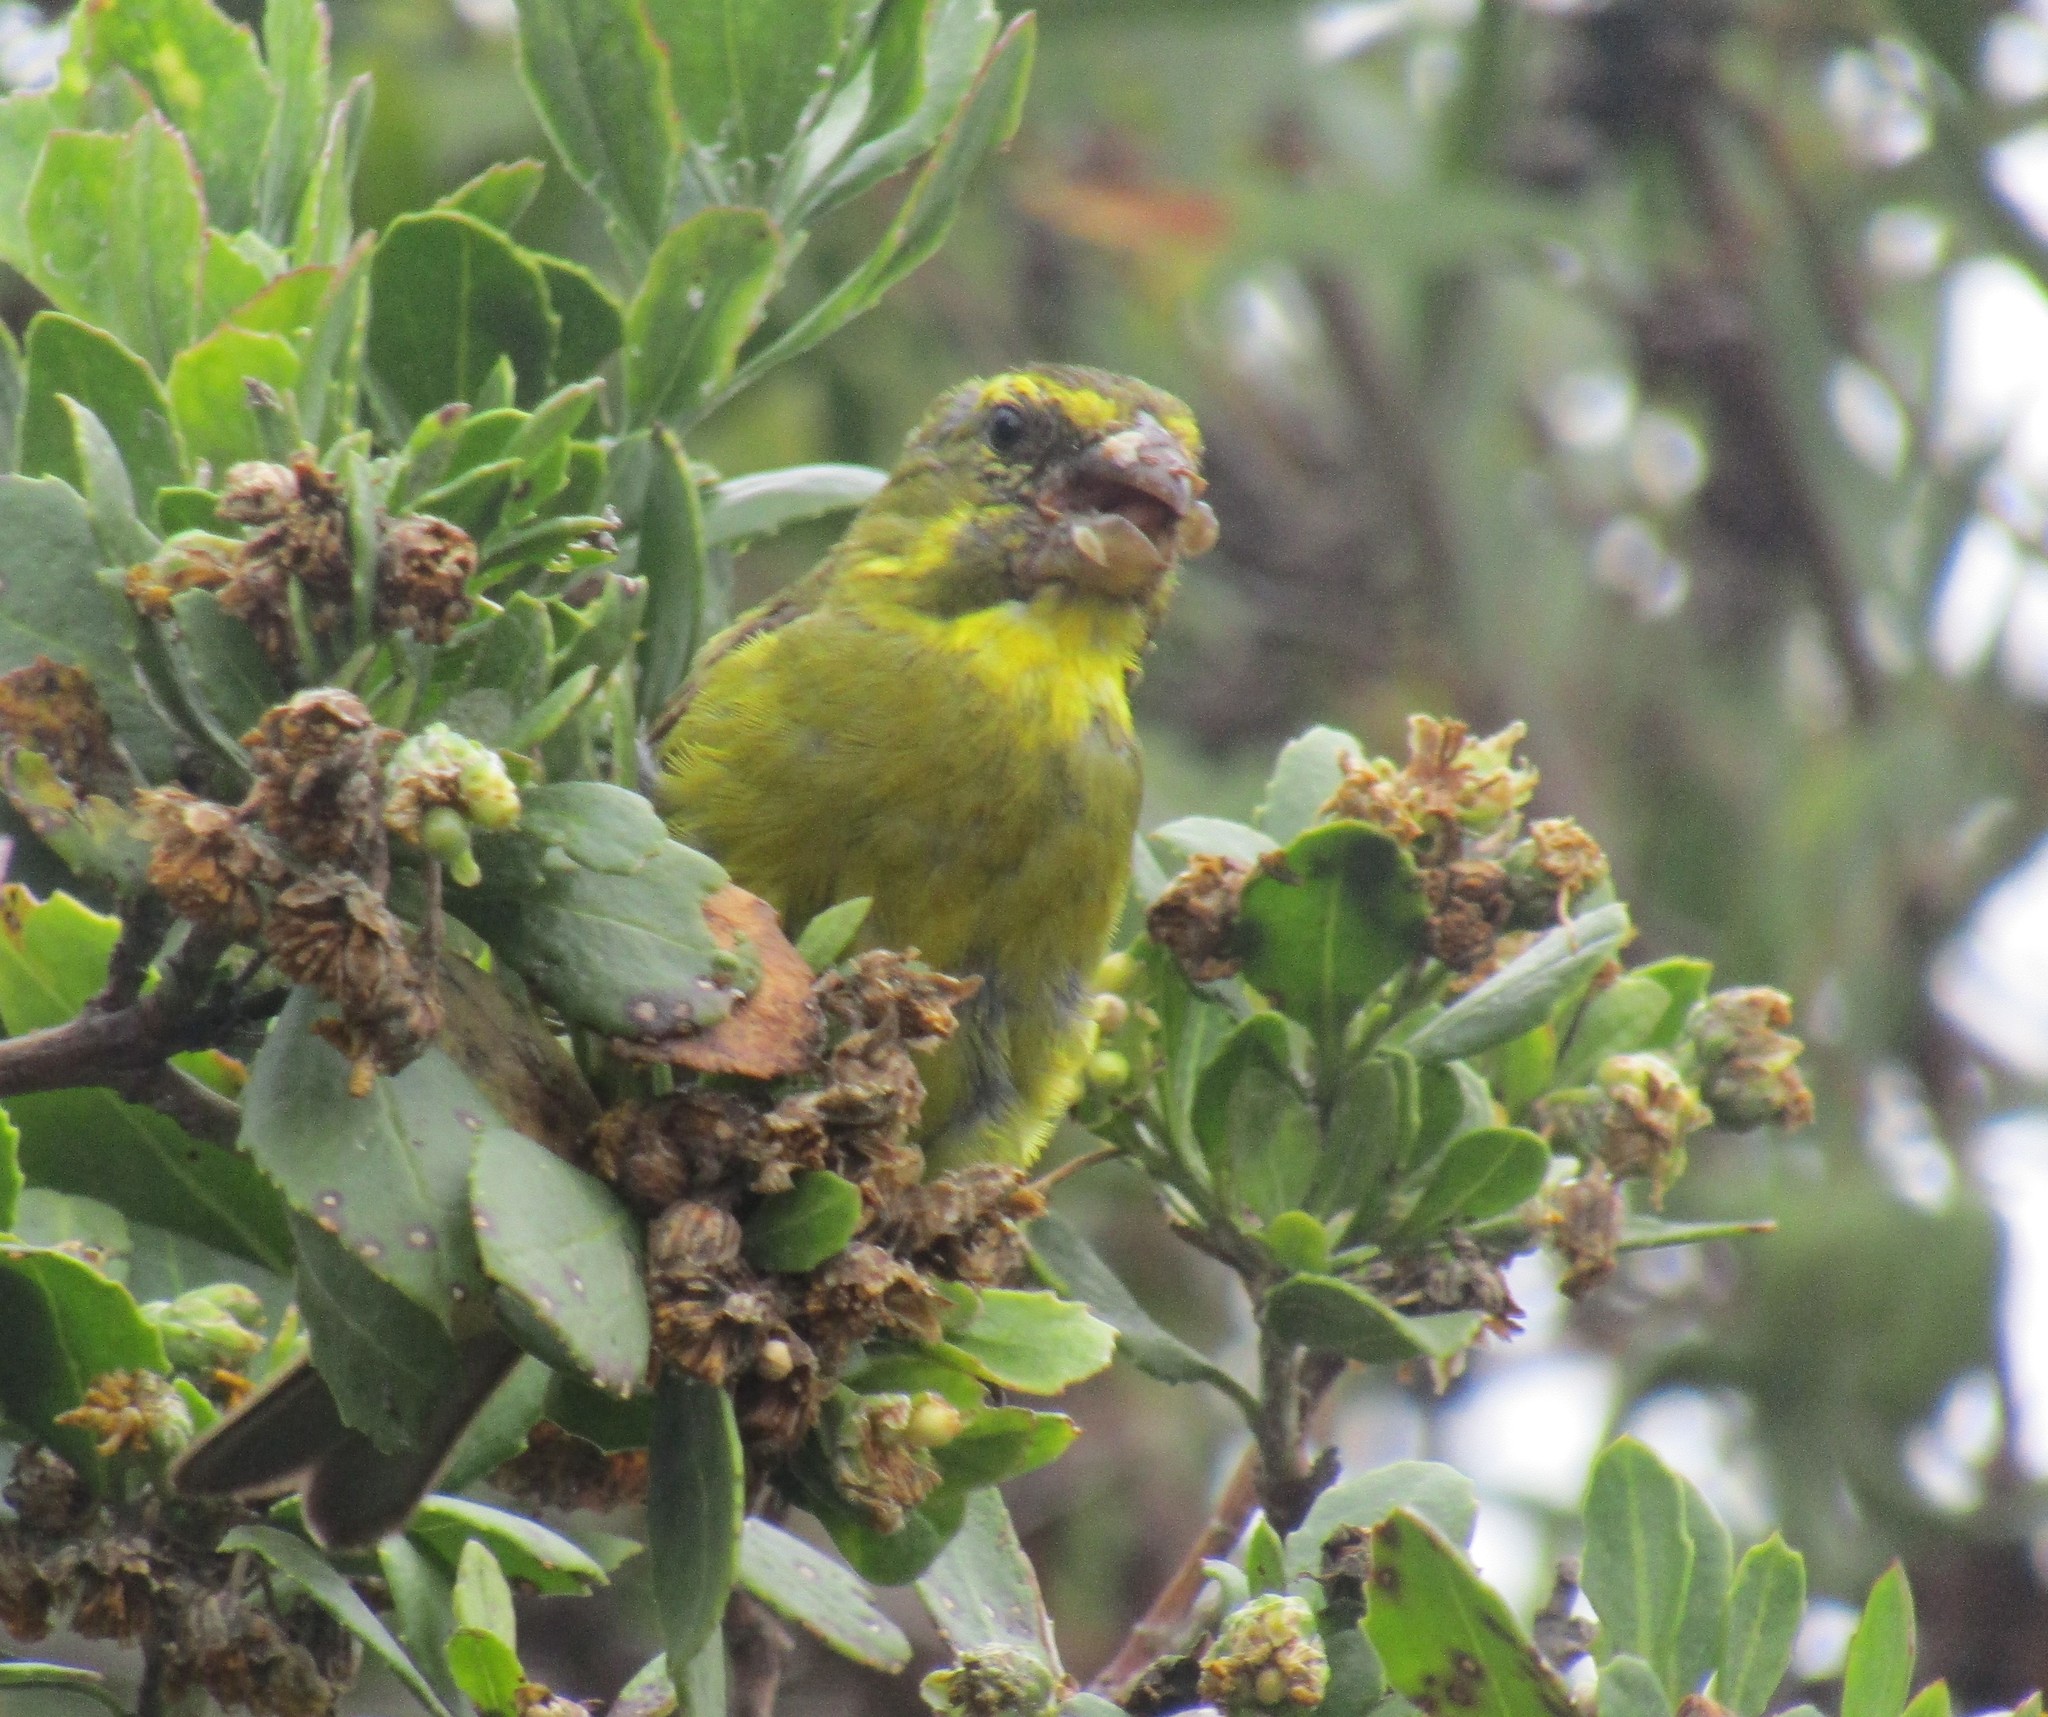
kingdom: Animalia
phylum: Chordata
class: Aves
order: Passeriformes
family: Fringillidae
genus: Crithagra
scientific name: Crithagra sulphurata
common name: Brimstone canary
